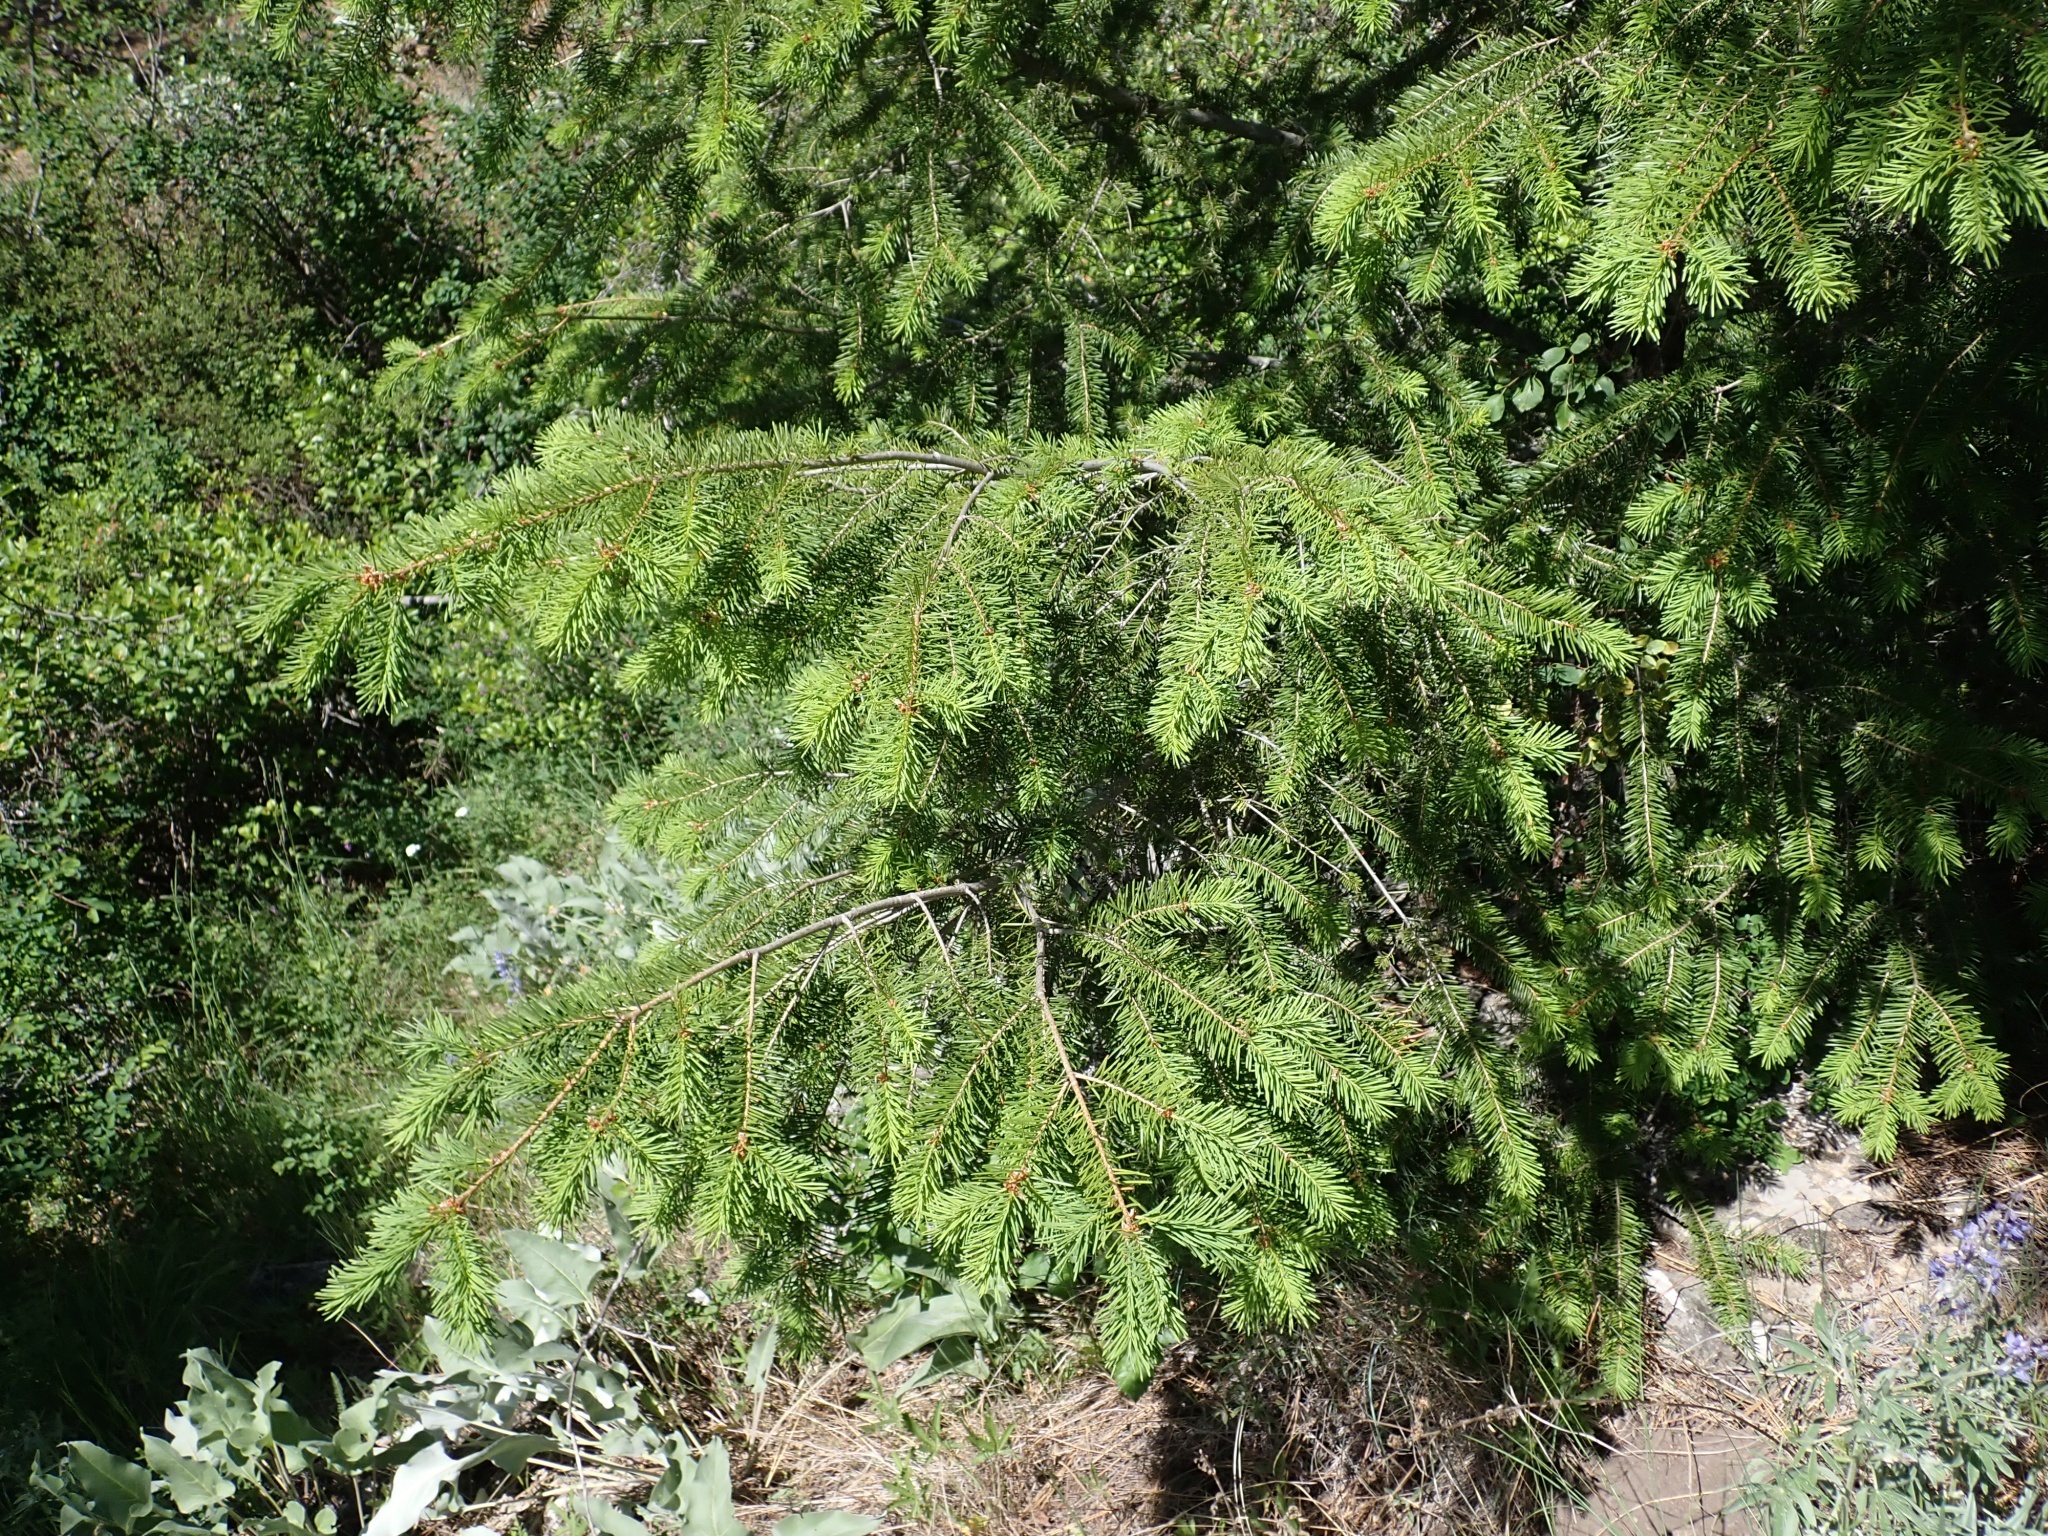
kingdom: Plantae
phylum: Tracheophyta
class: Pinopsida
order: Pinales
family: Pinaceae
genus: Pseudotsuga
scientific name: Pseudotsuga menziesii
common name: Douglas fir
